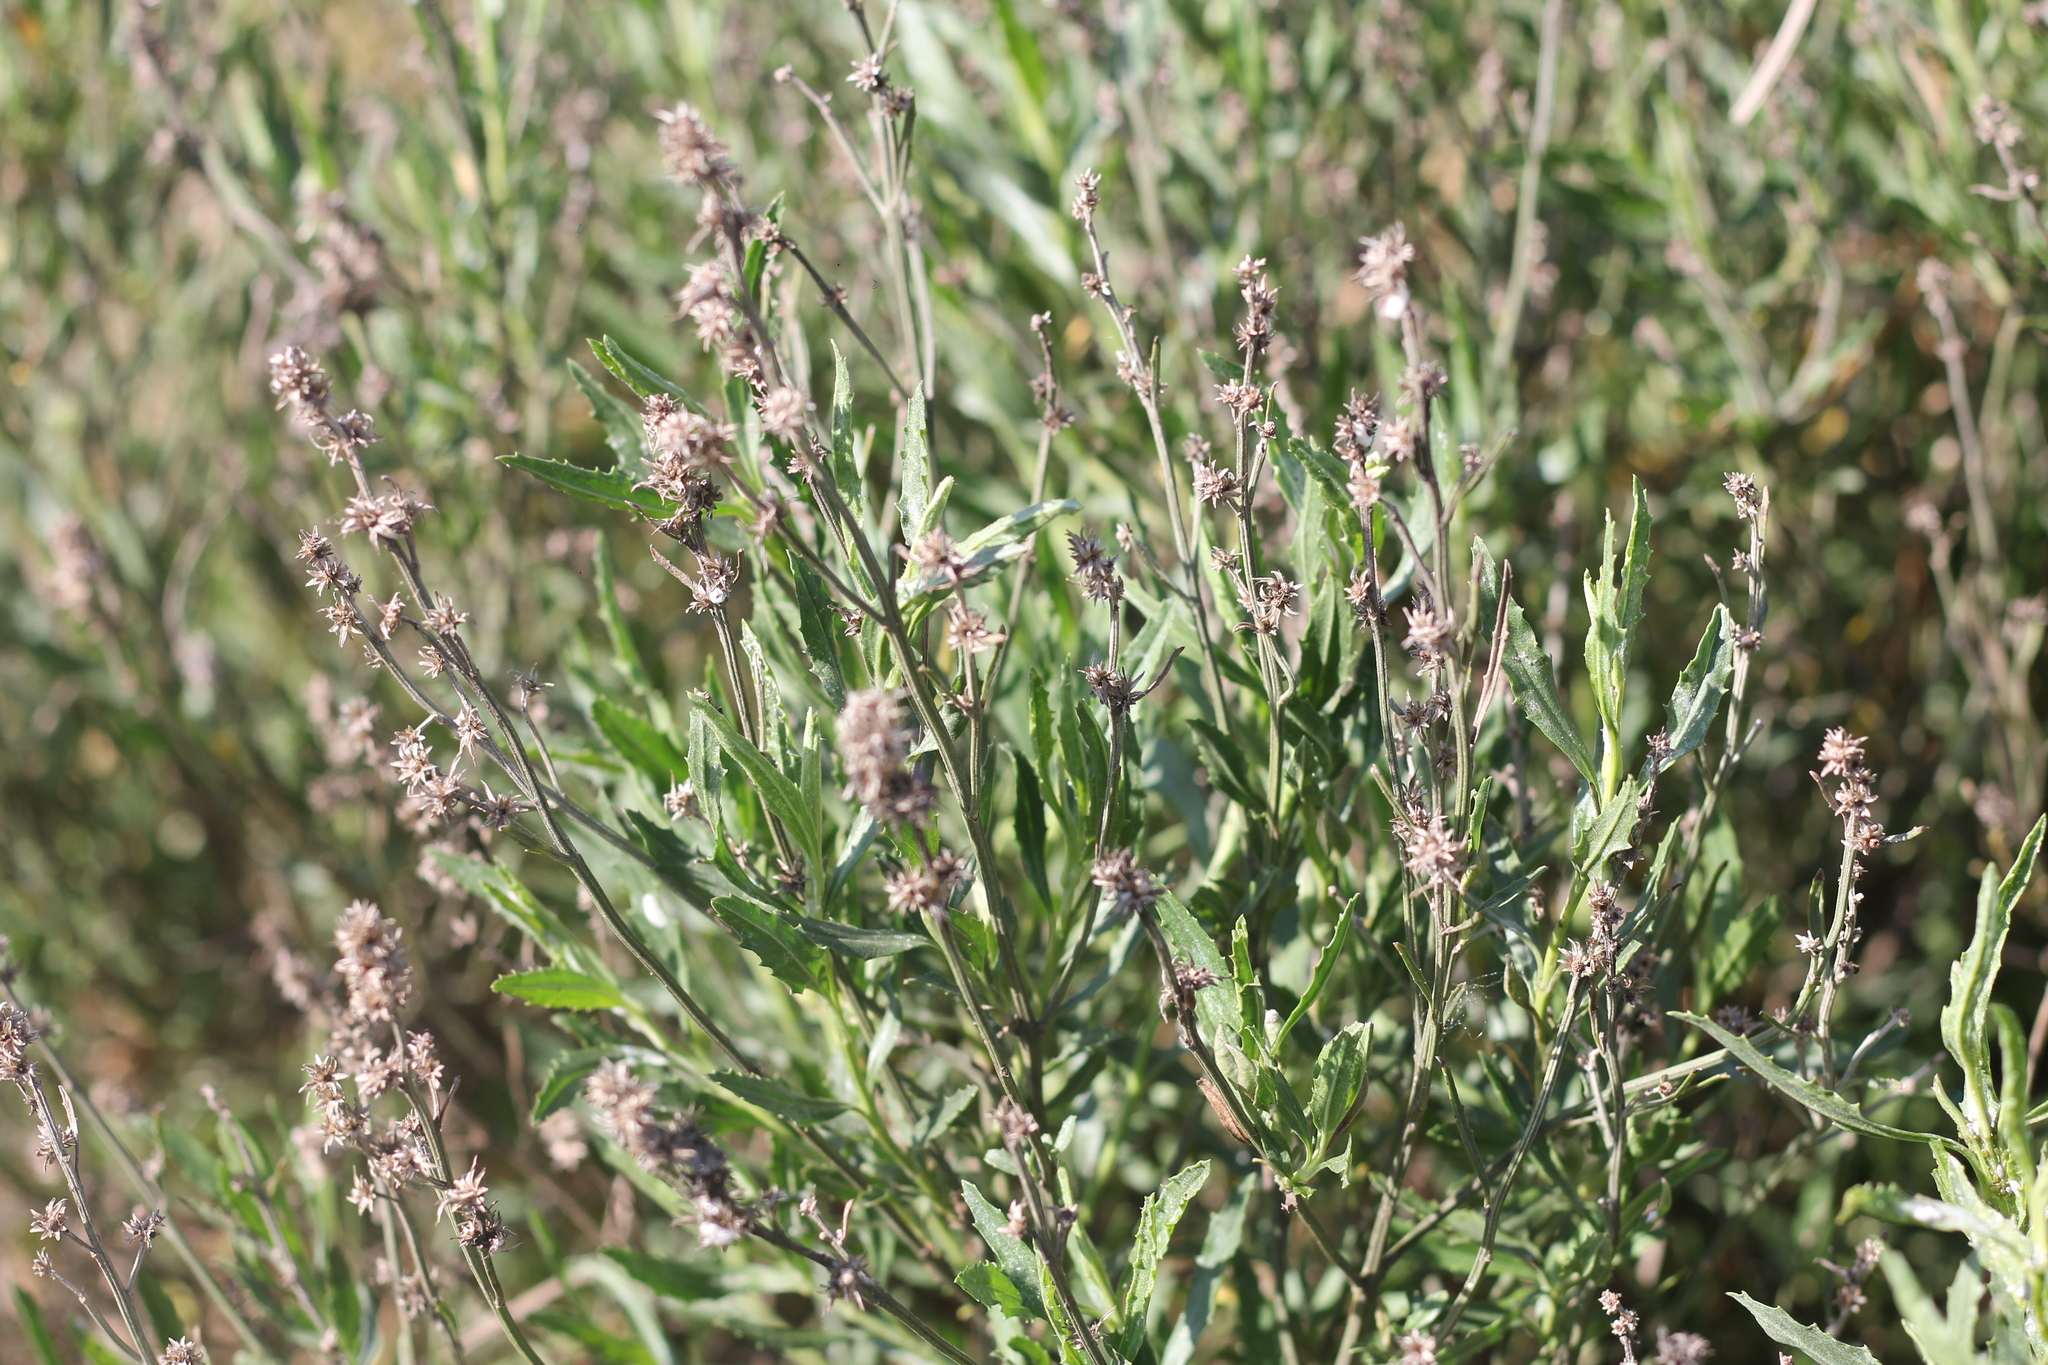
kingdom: Plantae
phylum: Tracheophyta
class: Magnoliopsida
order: Asterales
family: Asteraceae
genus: Baccharis
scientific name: Baccharis spicata
